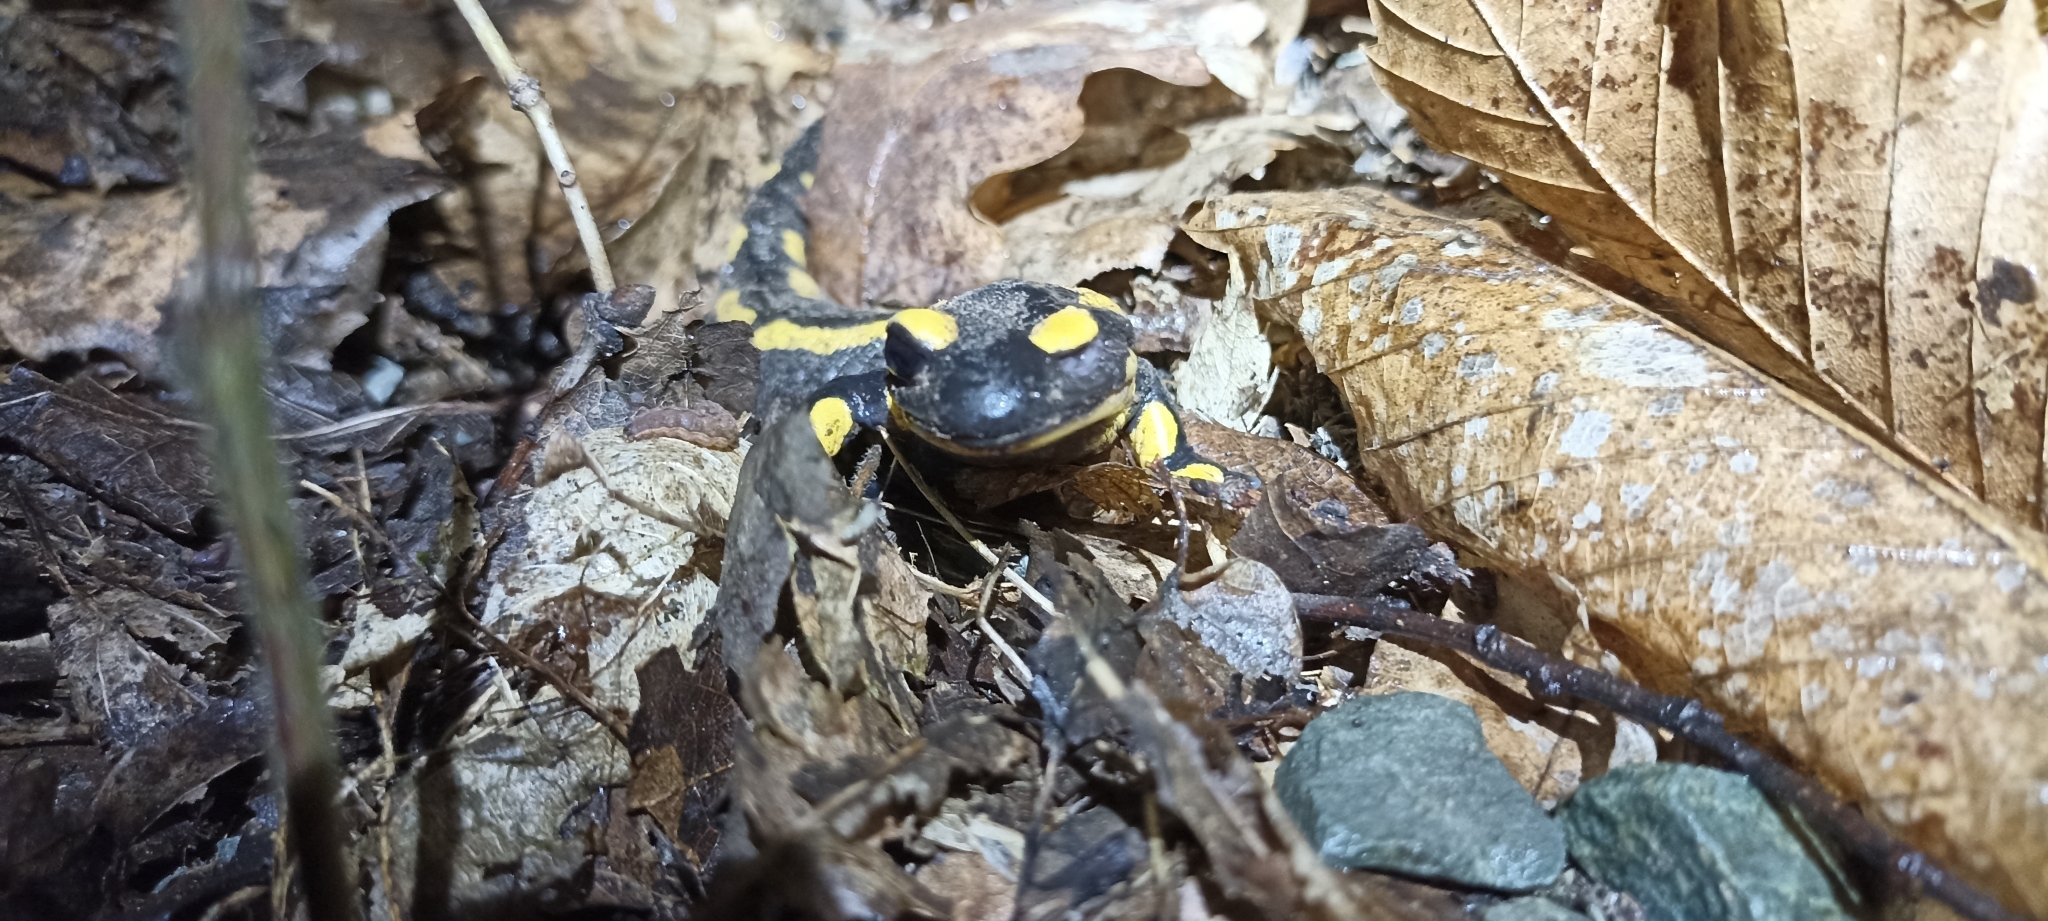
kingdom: Animalia
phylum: Chordata
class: Amphibia
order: Caudata
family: Salamandridae
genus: Salamandra
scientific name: Salamandra salamandra
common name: Fire salamander
